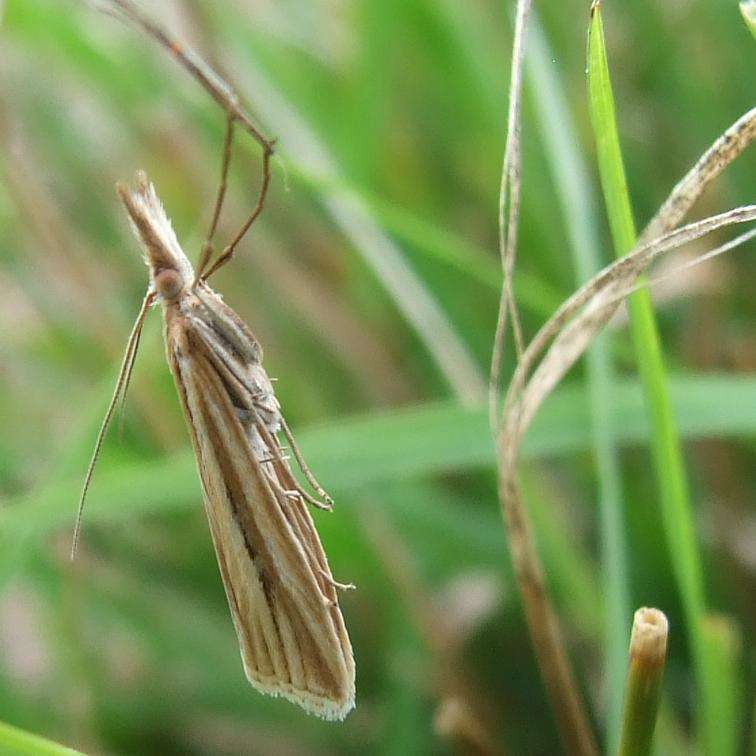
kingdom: Animalia
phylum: Arthropoda
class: Insecta
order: Lepidoptera
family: Crambidae
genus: Hednota
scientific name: Hednota grammellus
